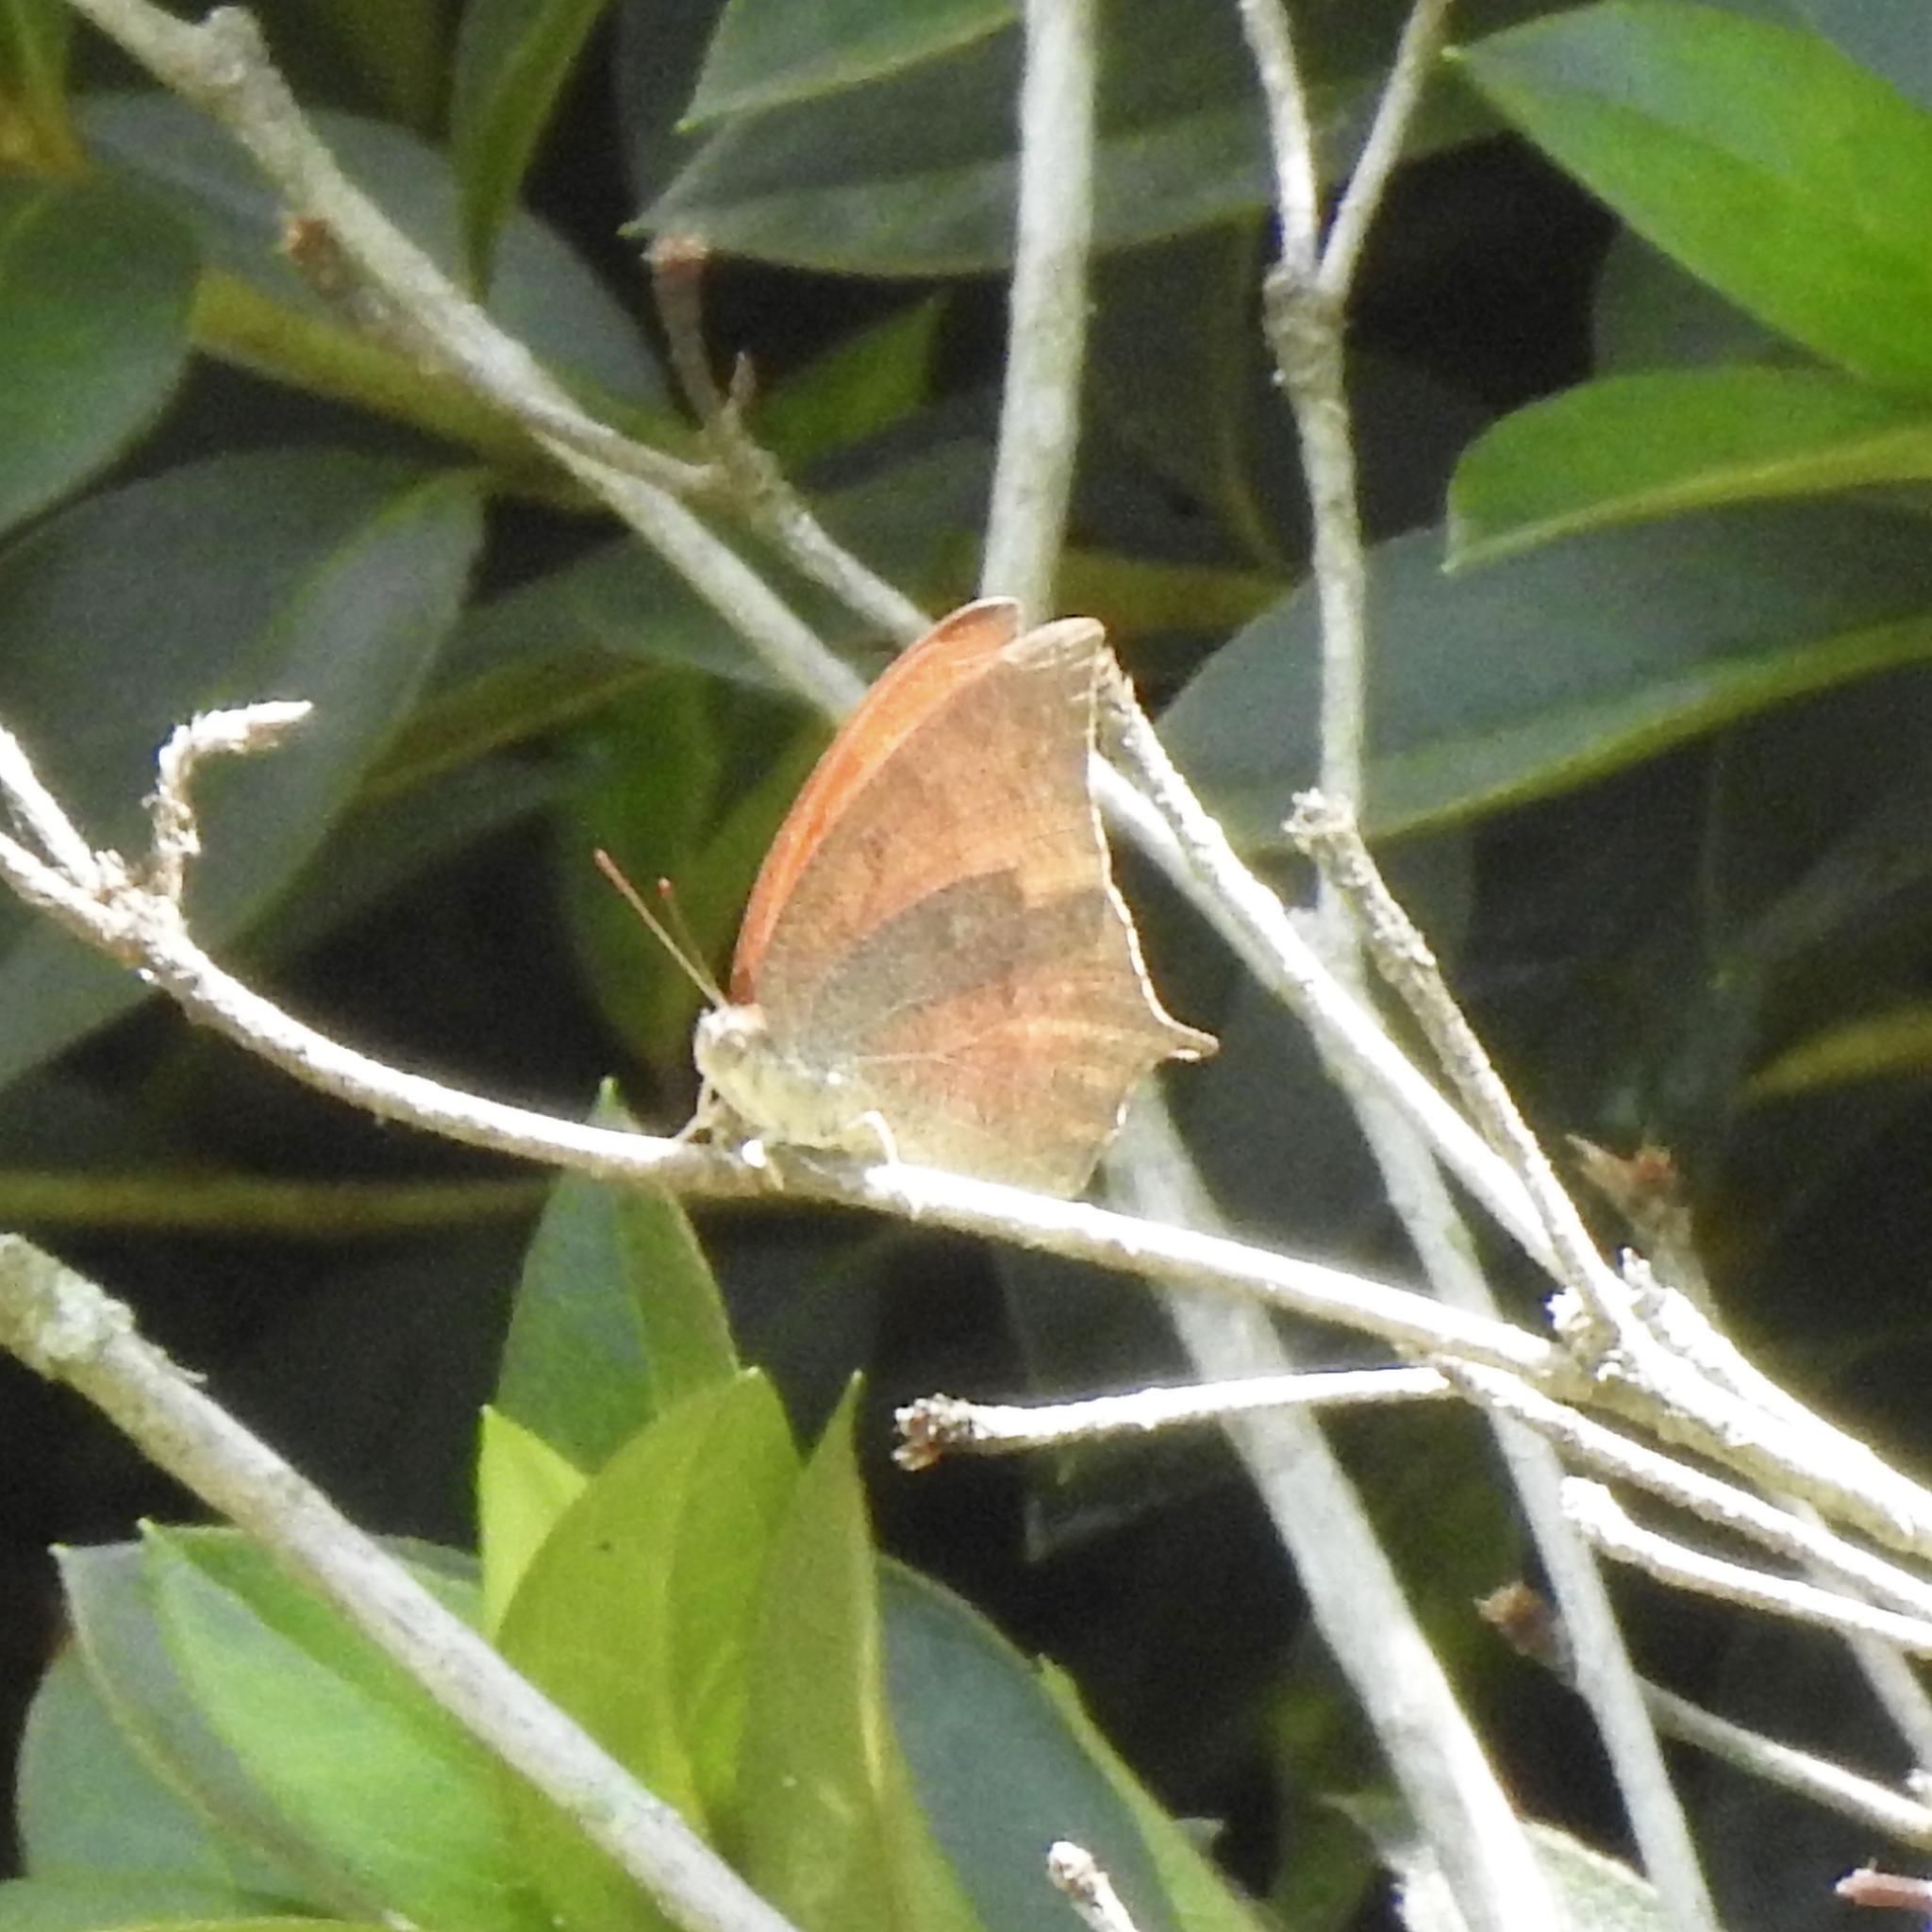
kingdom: Animalia
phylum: Arthropoda
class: Insecta
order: Lepidoptera
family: Nymphalidae
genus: Anaea
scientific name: Anaea andria
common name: Goatweed leafwing
